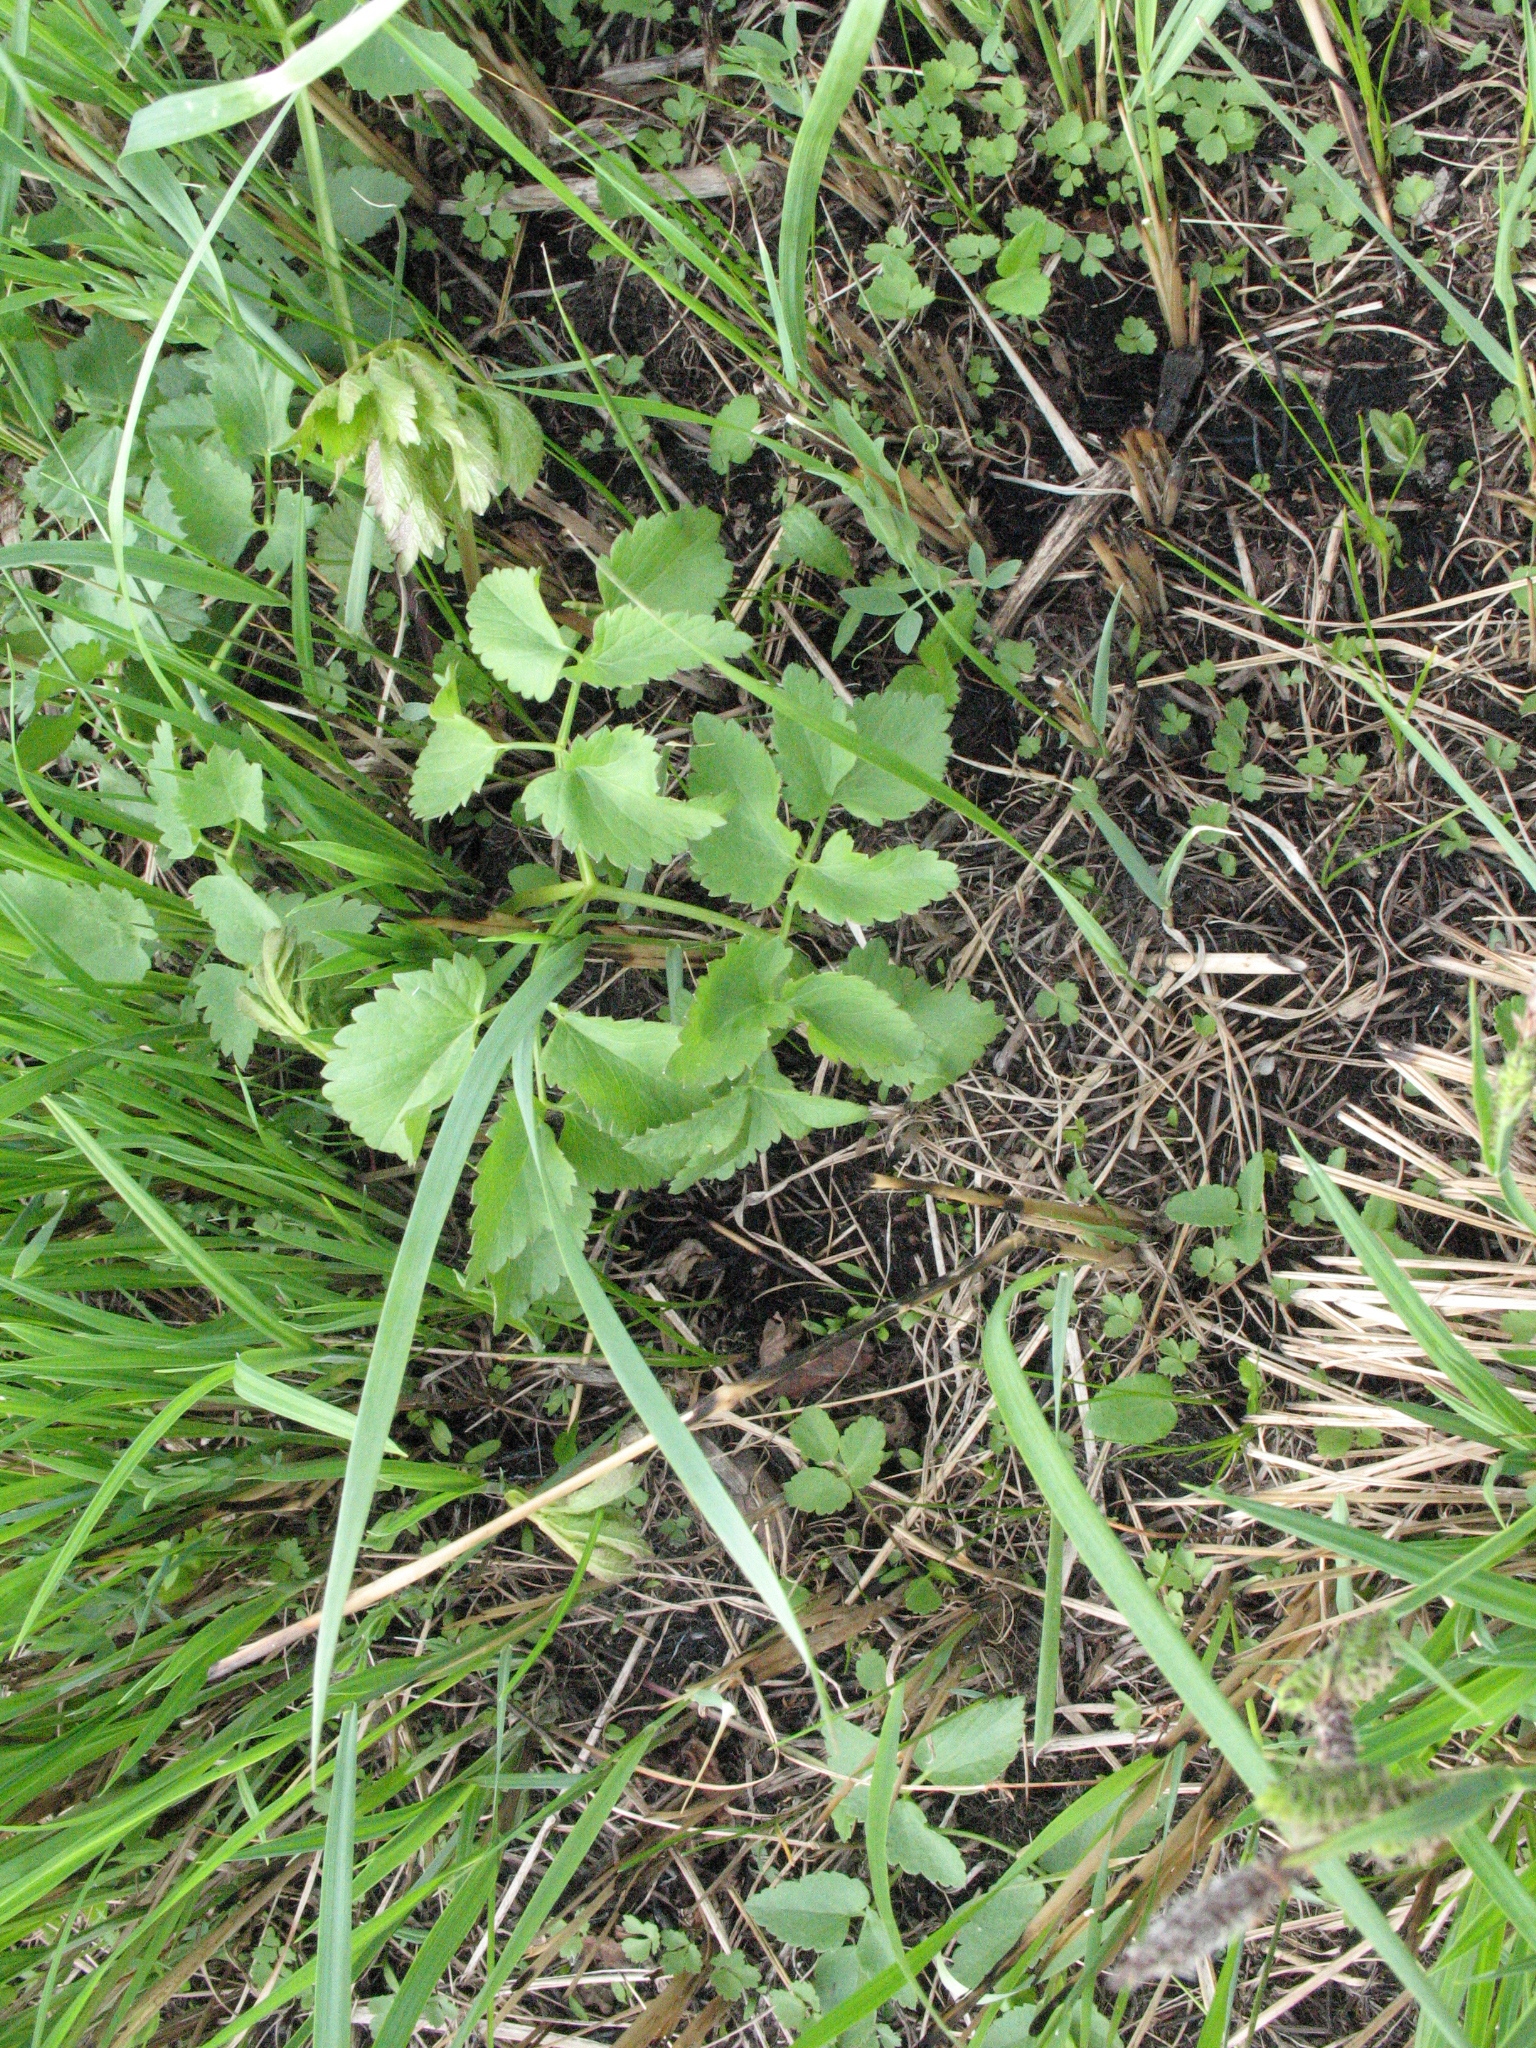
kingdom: Plantae
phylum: Tracheophyta
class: Magnoliopsida
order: Apiales
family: Apiaceae
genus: Ostericum
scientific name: Ostericum palustre
